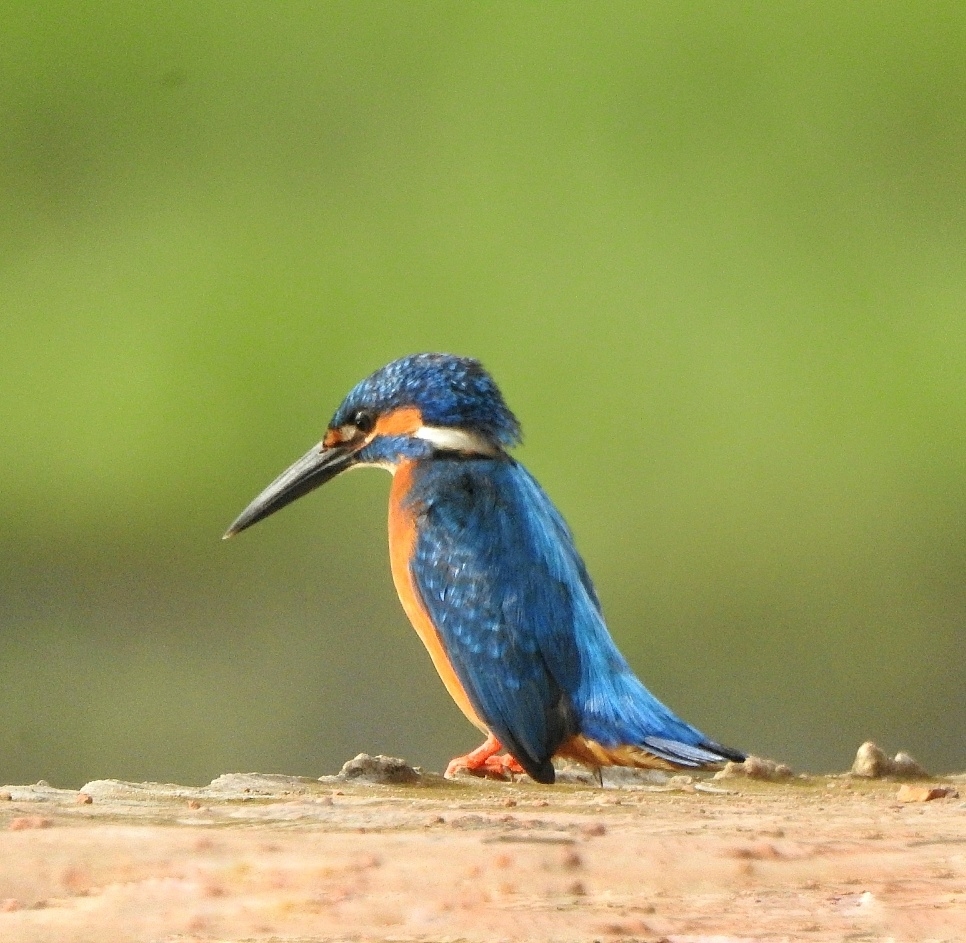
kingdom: Animalia
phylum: Chordata
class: Aves
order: Coraciiformes
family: Alcedinidae
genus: Alcedo
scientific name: Alcedo atthis
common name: Common kingfisher
